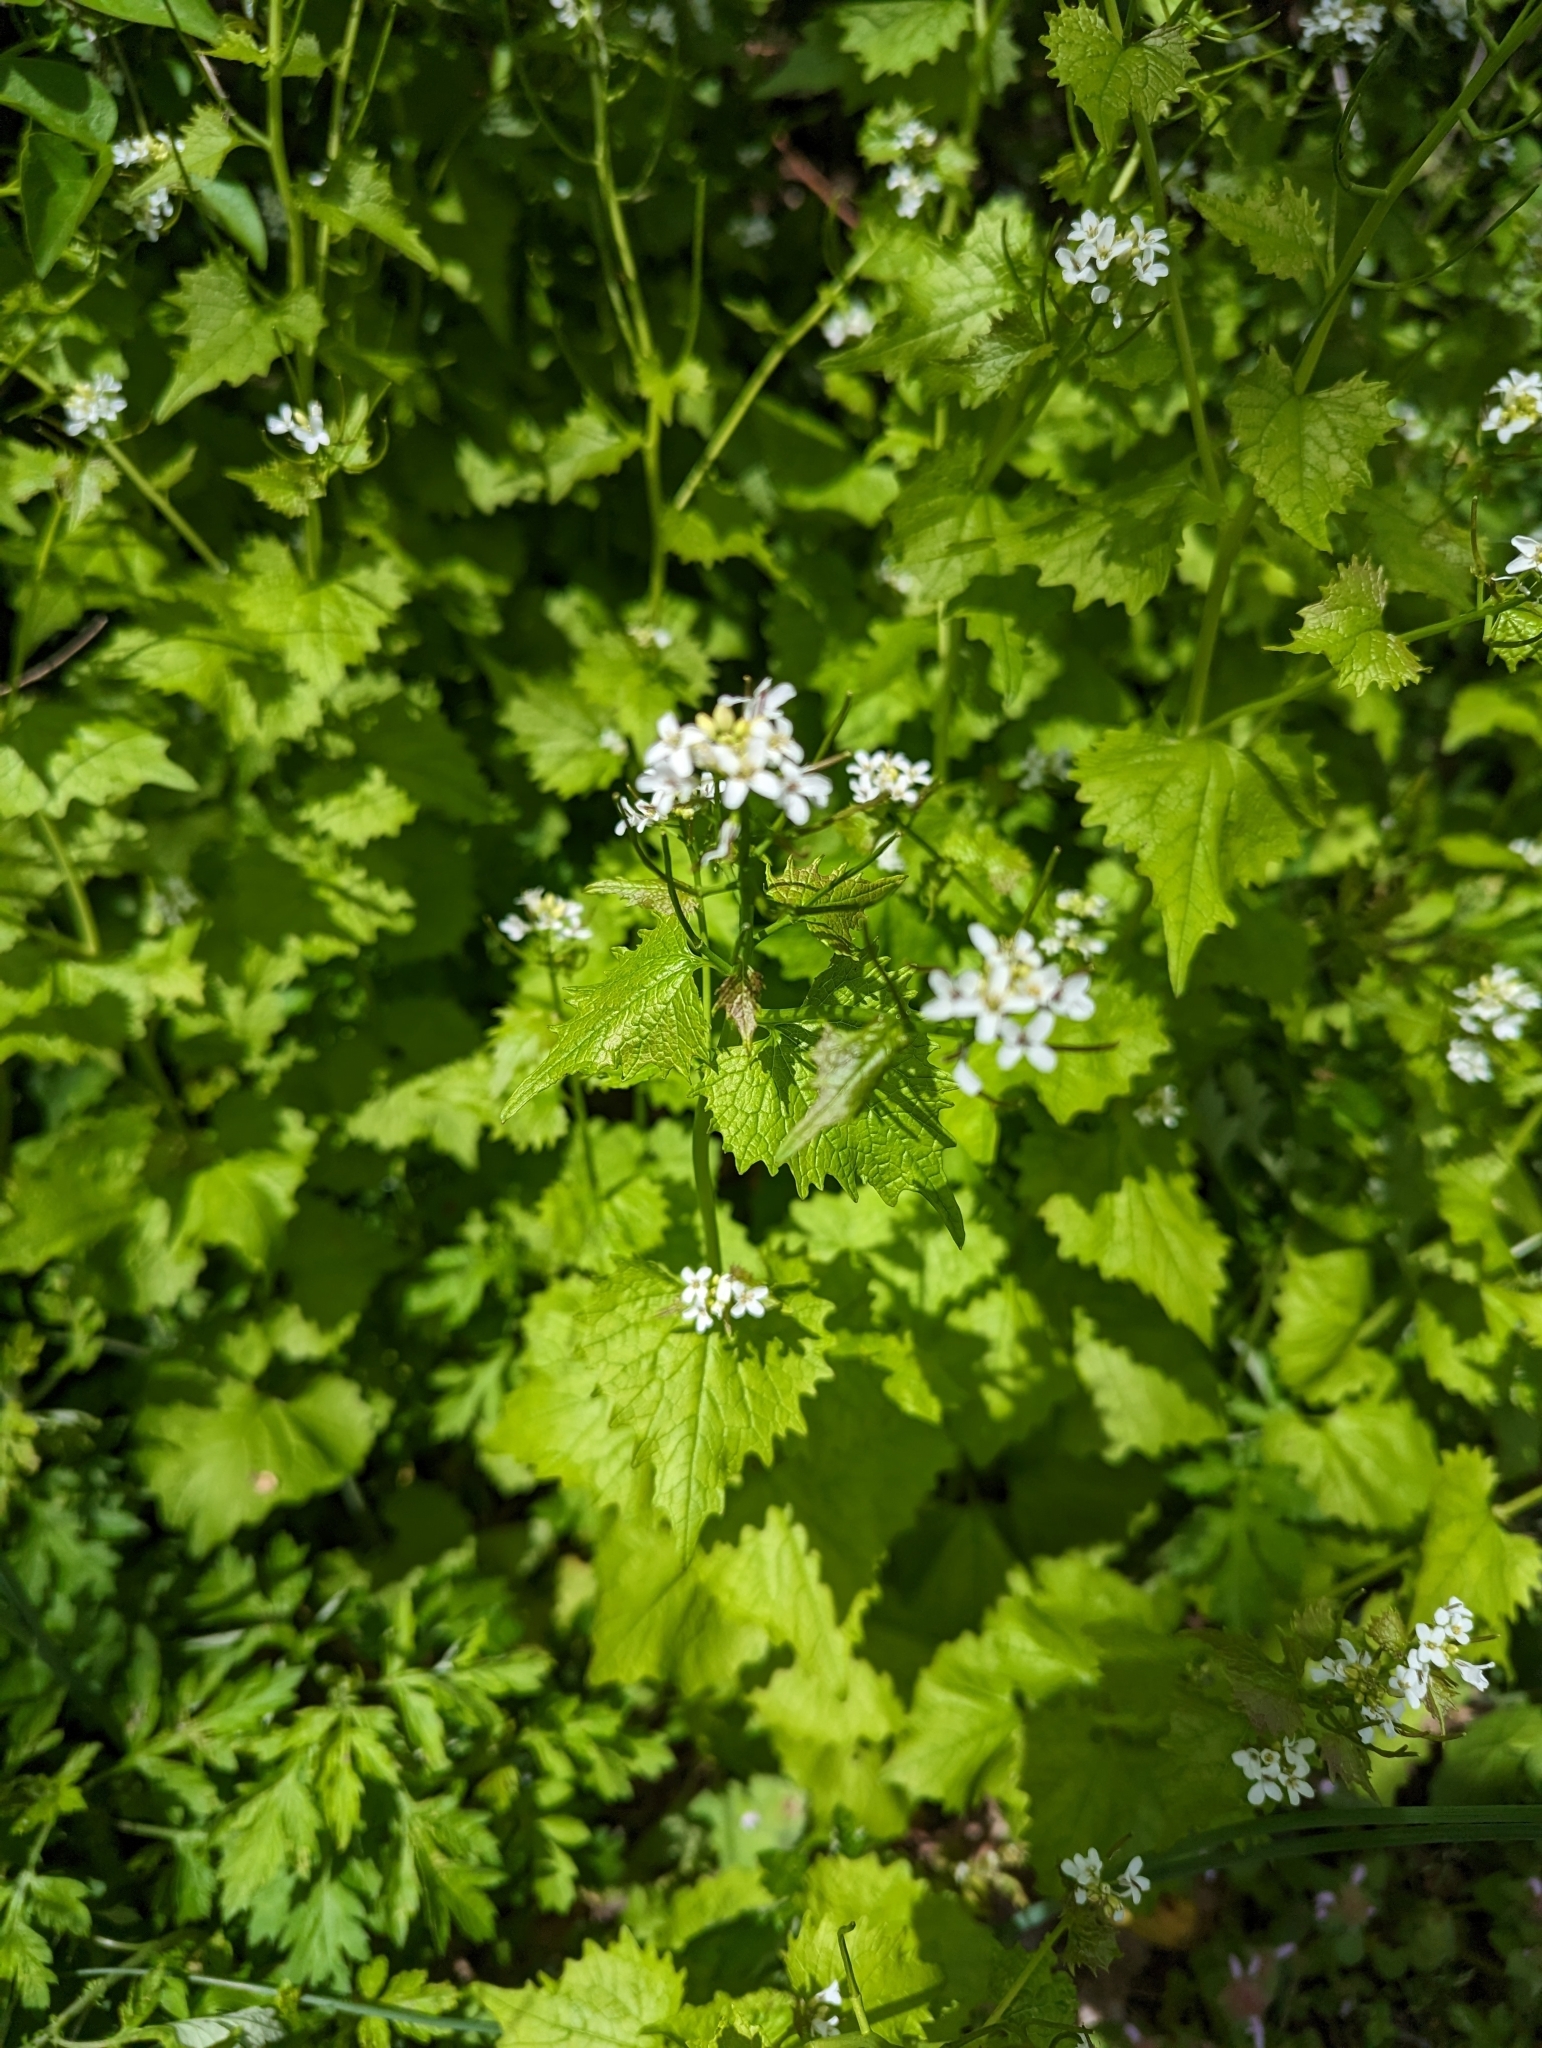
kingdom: Plantae
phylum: Tracheophyta
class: Magnoliopsida
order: Brassicales
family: Brassicaceae
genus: Alliaria
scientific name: Alliaria petiolata
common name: Garlic mustard
